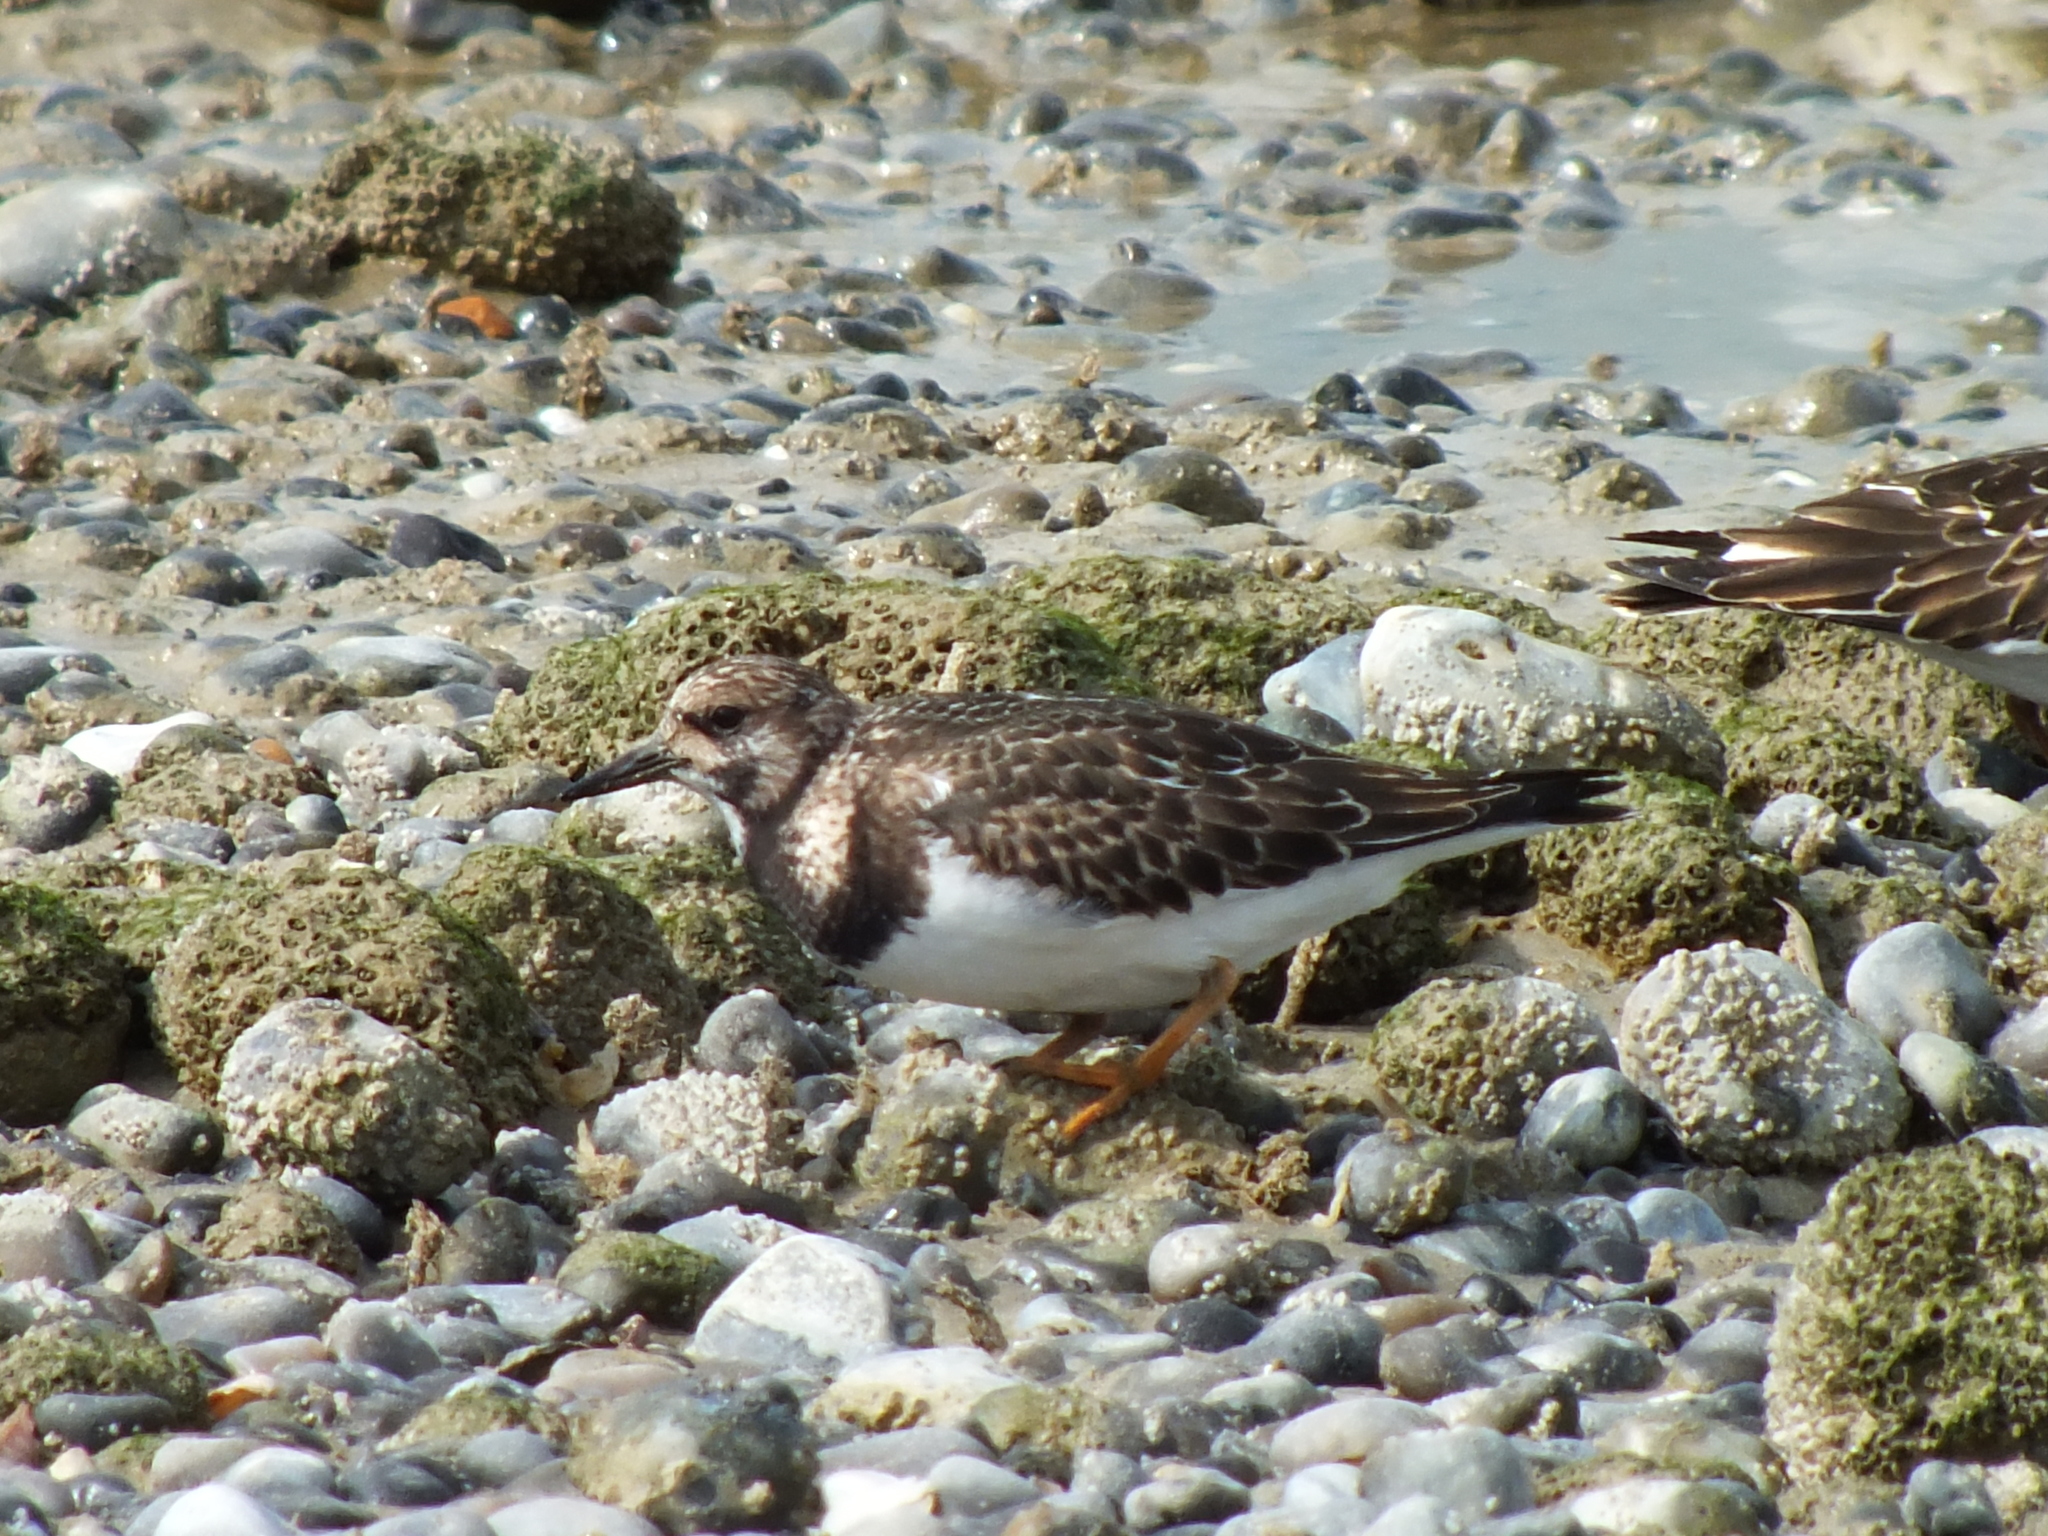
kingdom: Animalia
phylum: Chordata
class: Aves
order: Charadriiformes
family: Scolopacidae
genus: Arenaria
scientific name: Arenaria interpres
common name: Ruddy turnstone
